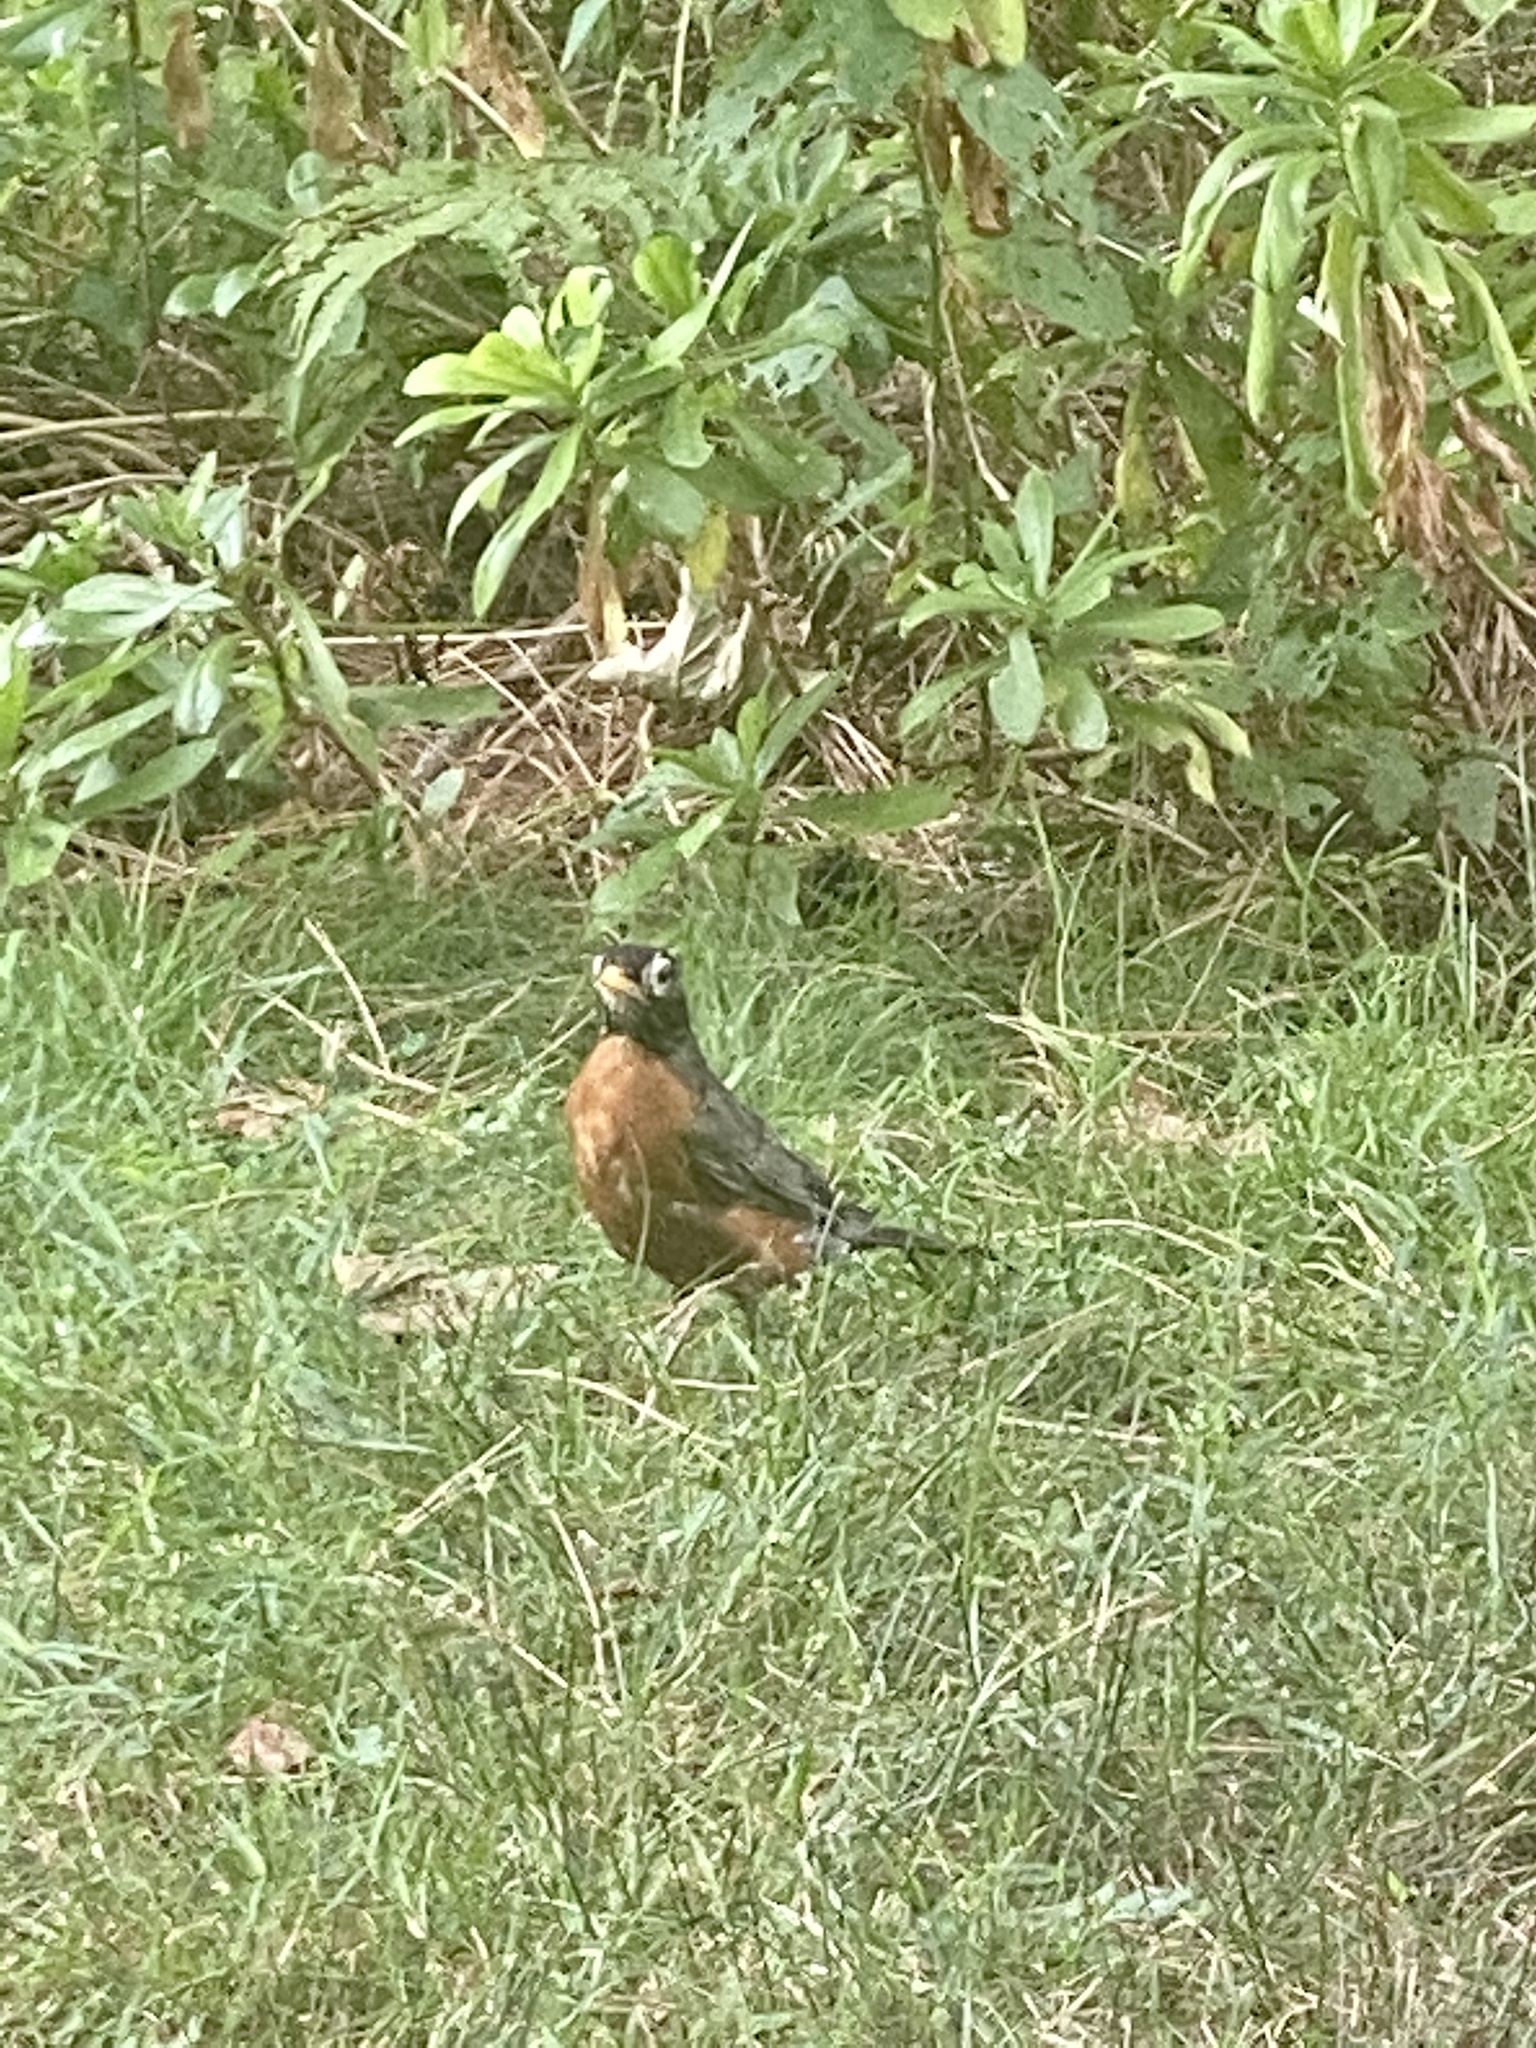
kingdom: Animalia
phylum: Chordata
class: Aves
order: Passeriformes
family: Turdidae
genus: Turdus
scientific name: Turdus migratorius
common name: American robin
